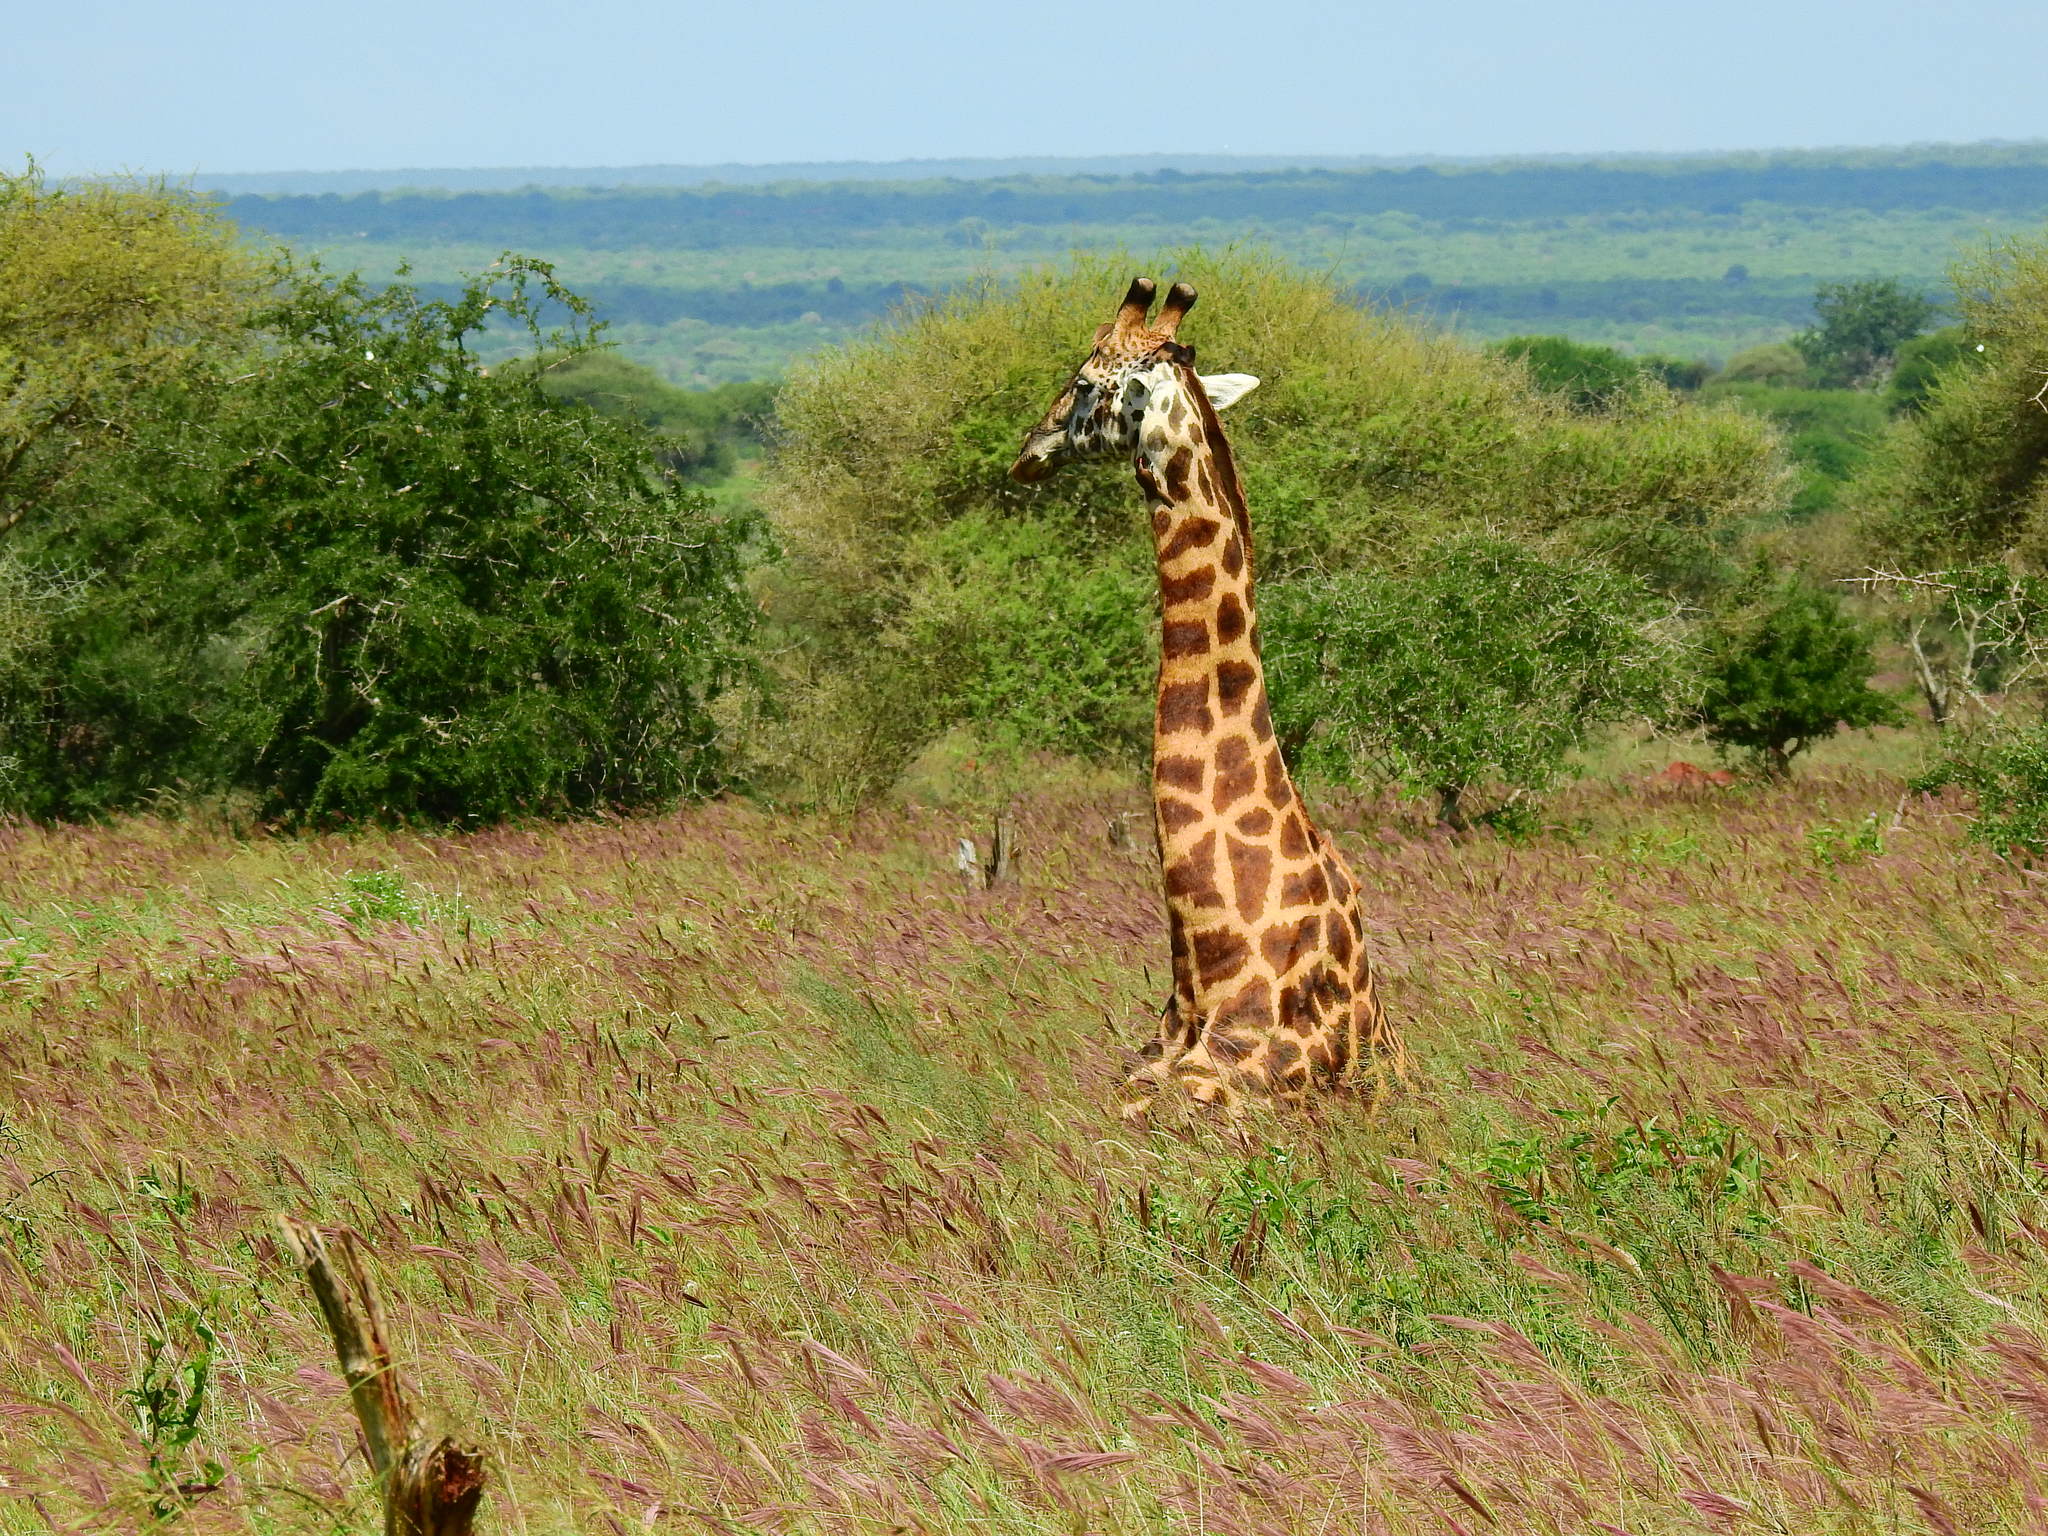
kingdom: Animalia
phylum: Chordata
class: Mammalia
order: Artiodactyla
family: Giraffidae
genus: Giraffa
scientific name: Giraffa tippelskirchi
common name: Masai giraffe
